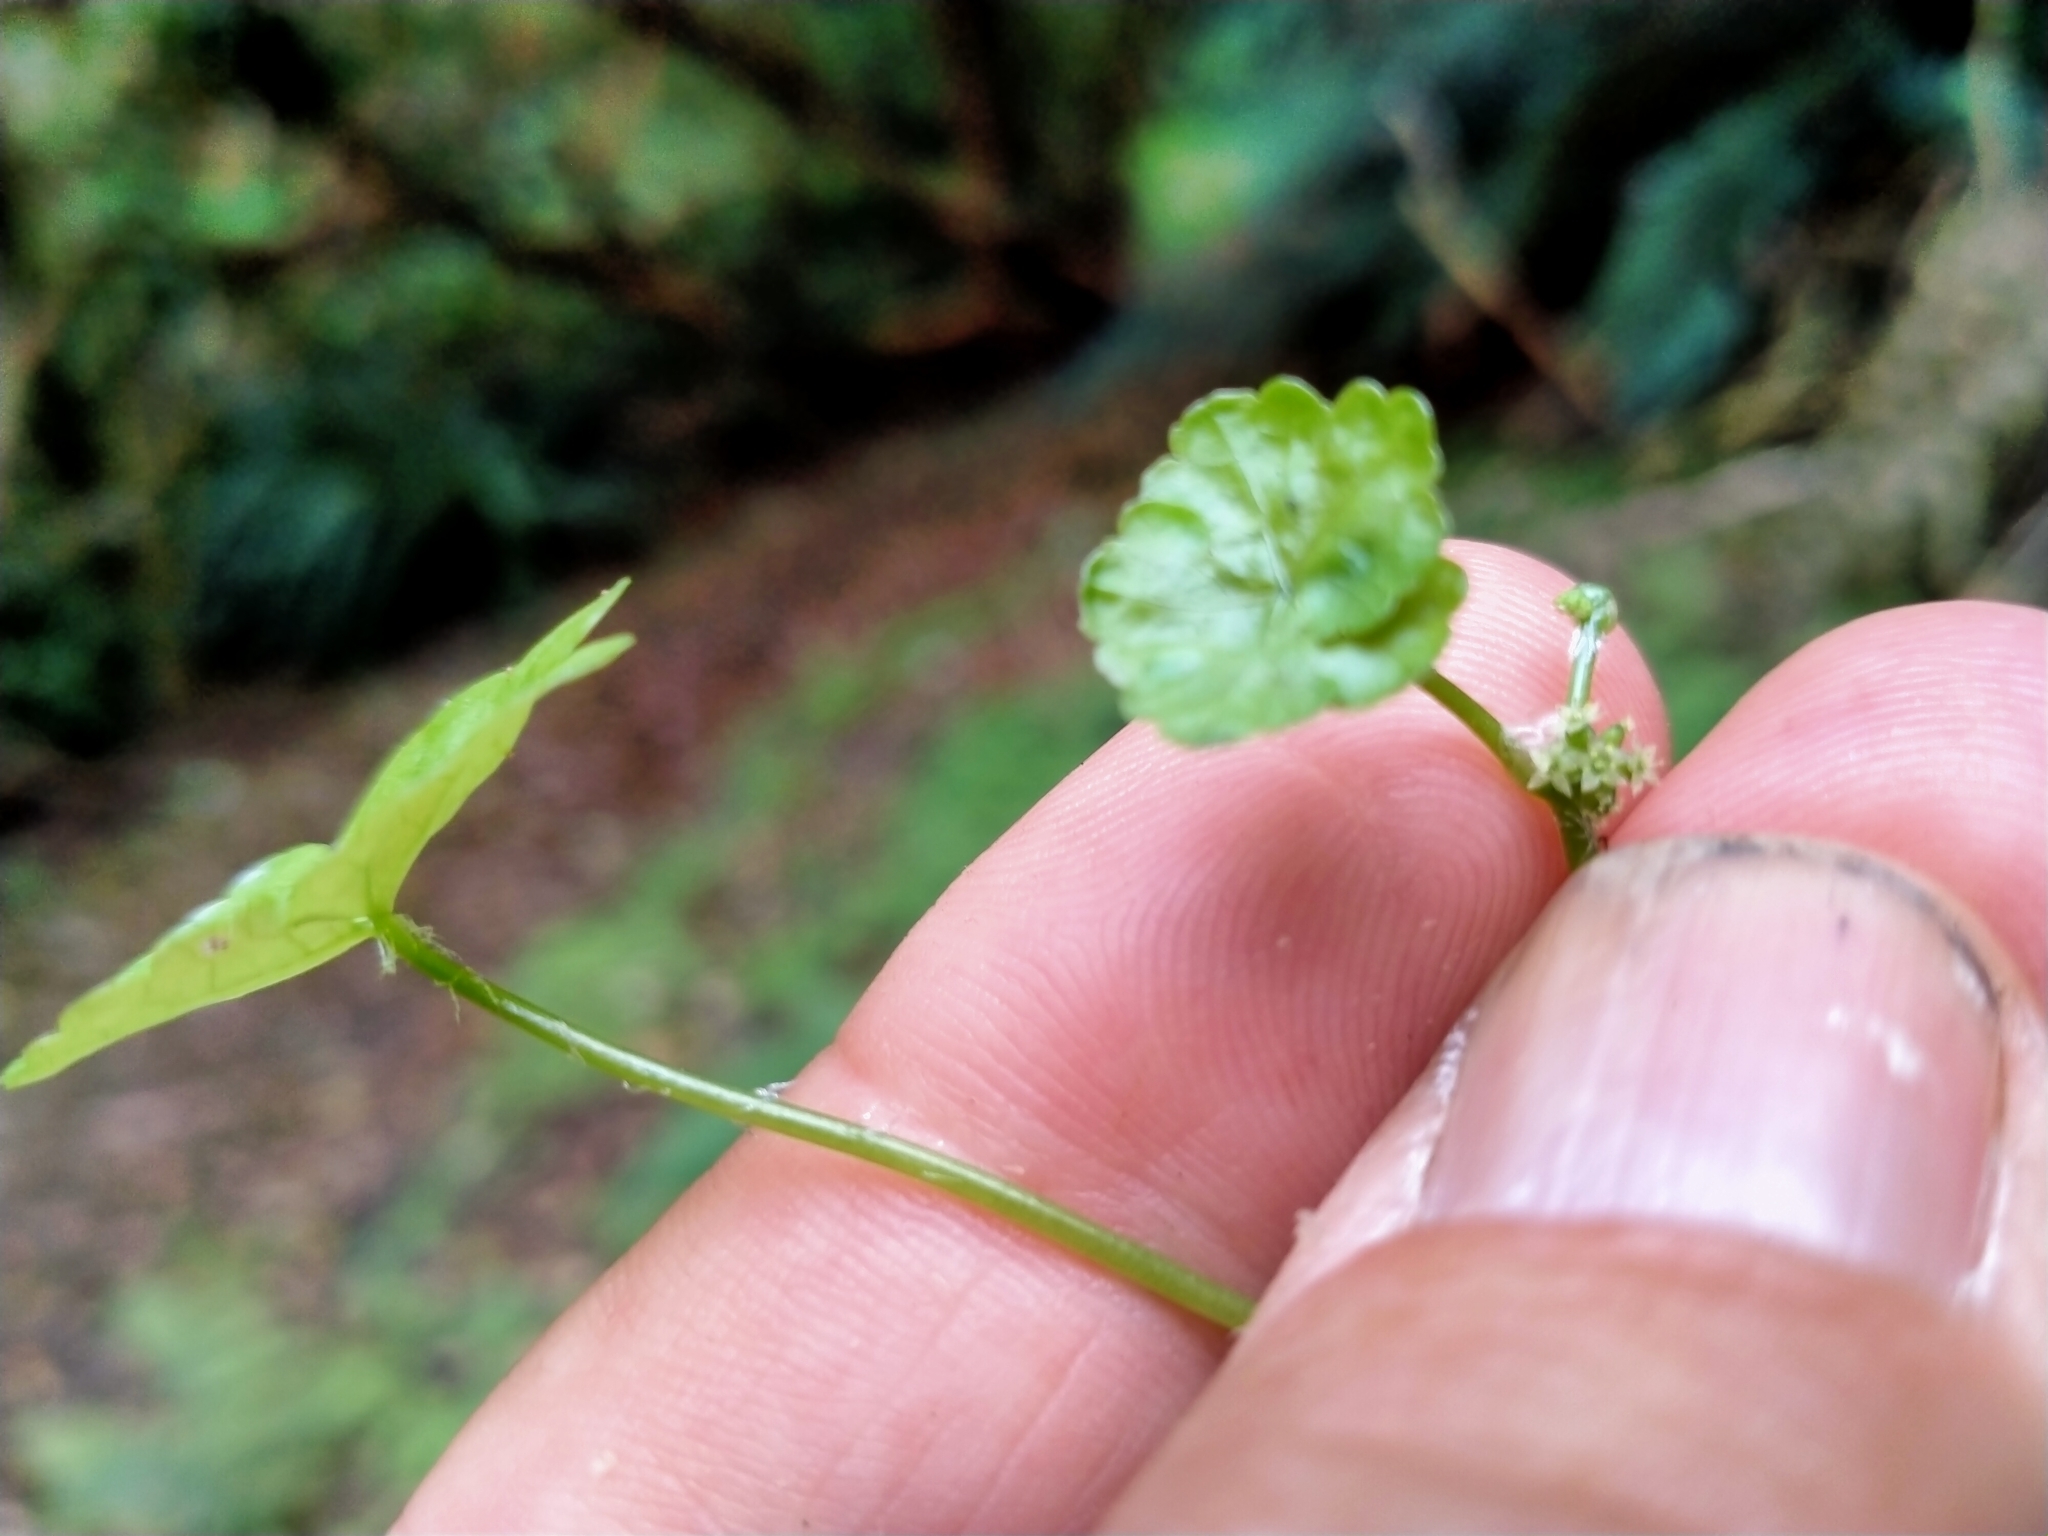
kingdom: Plantae
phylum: Tracheophyta
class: Magnoliopsida
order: Apiales
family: Araliaceae
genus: Hydrocotyle
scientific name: Hydrocotyle heteromeria
